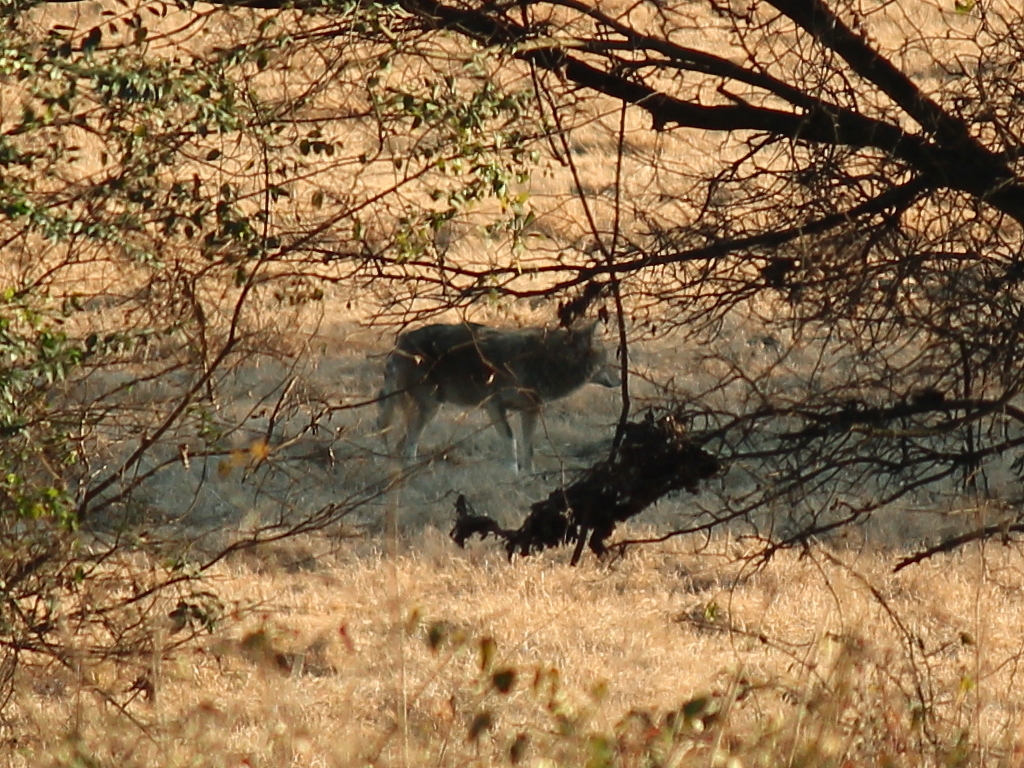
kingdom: Animalia
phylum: Chordata
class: Mammalia
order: Carnivora
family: Canidae
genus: Canis
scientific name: Canis latrans
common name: Coyote
